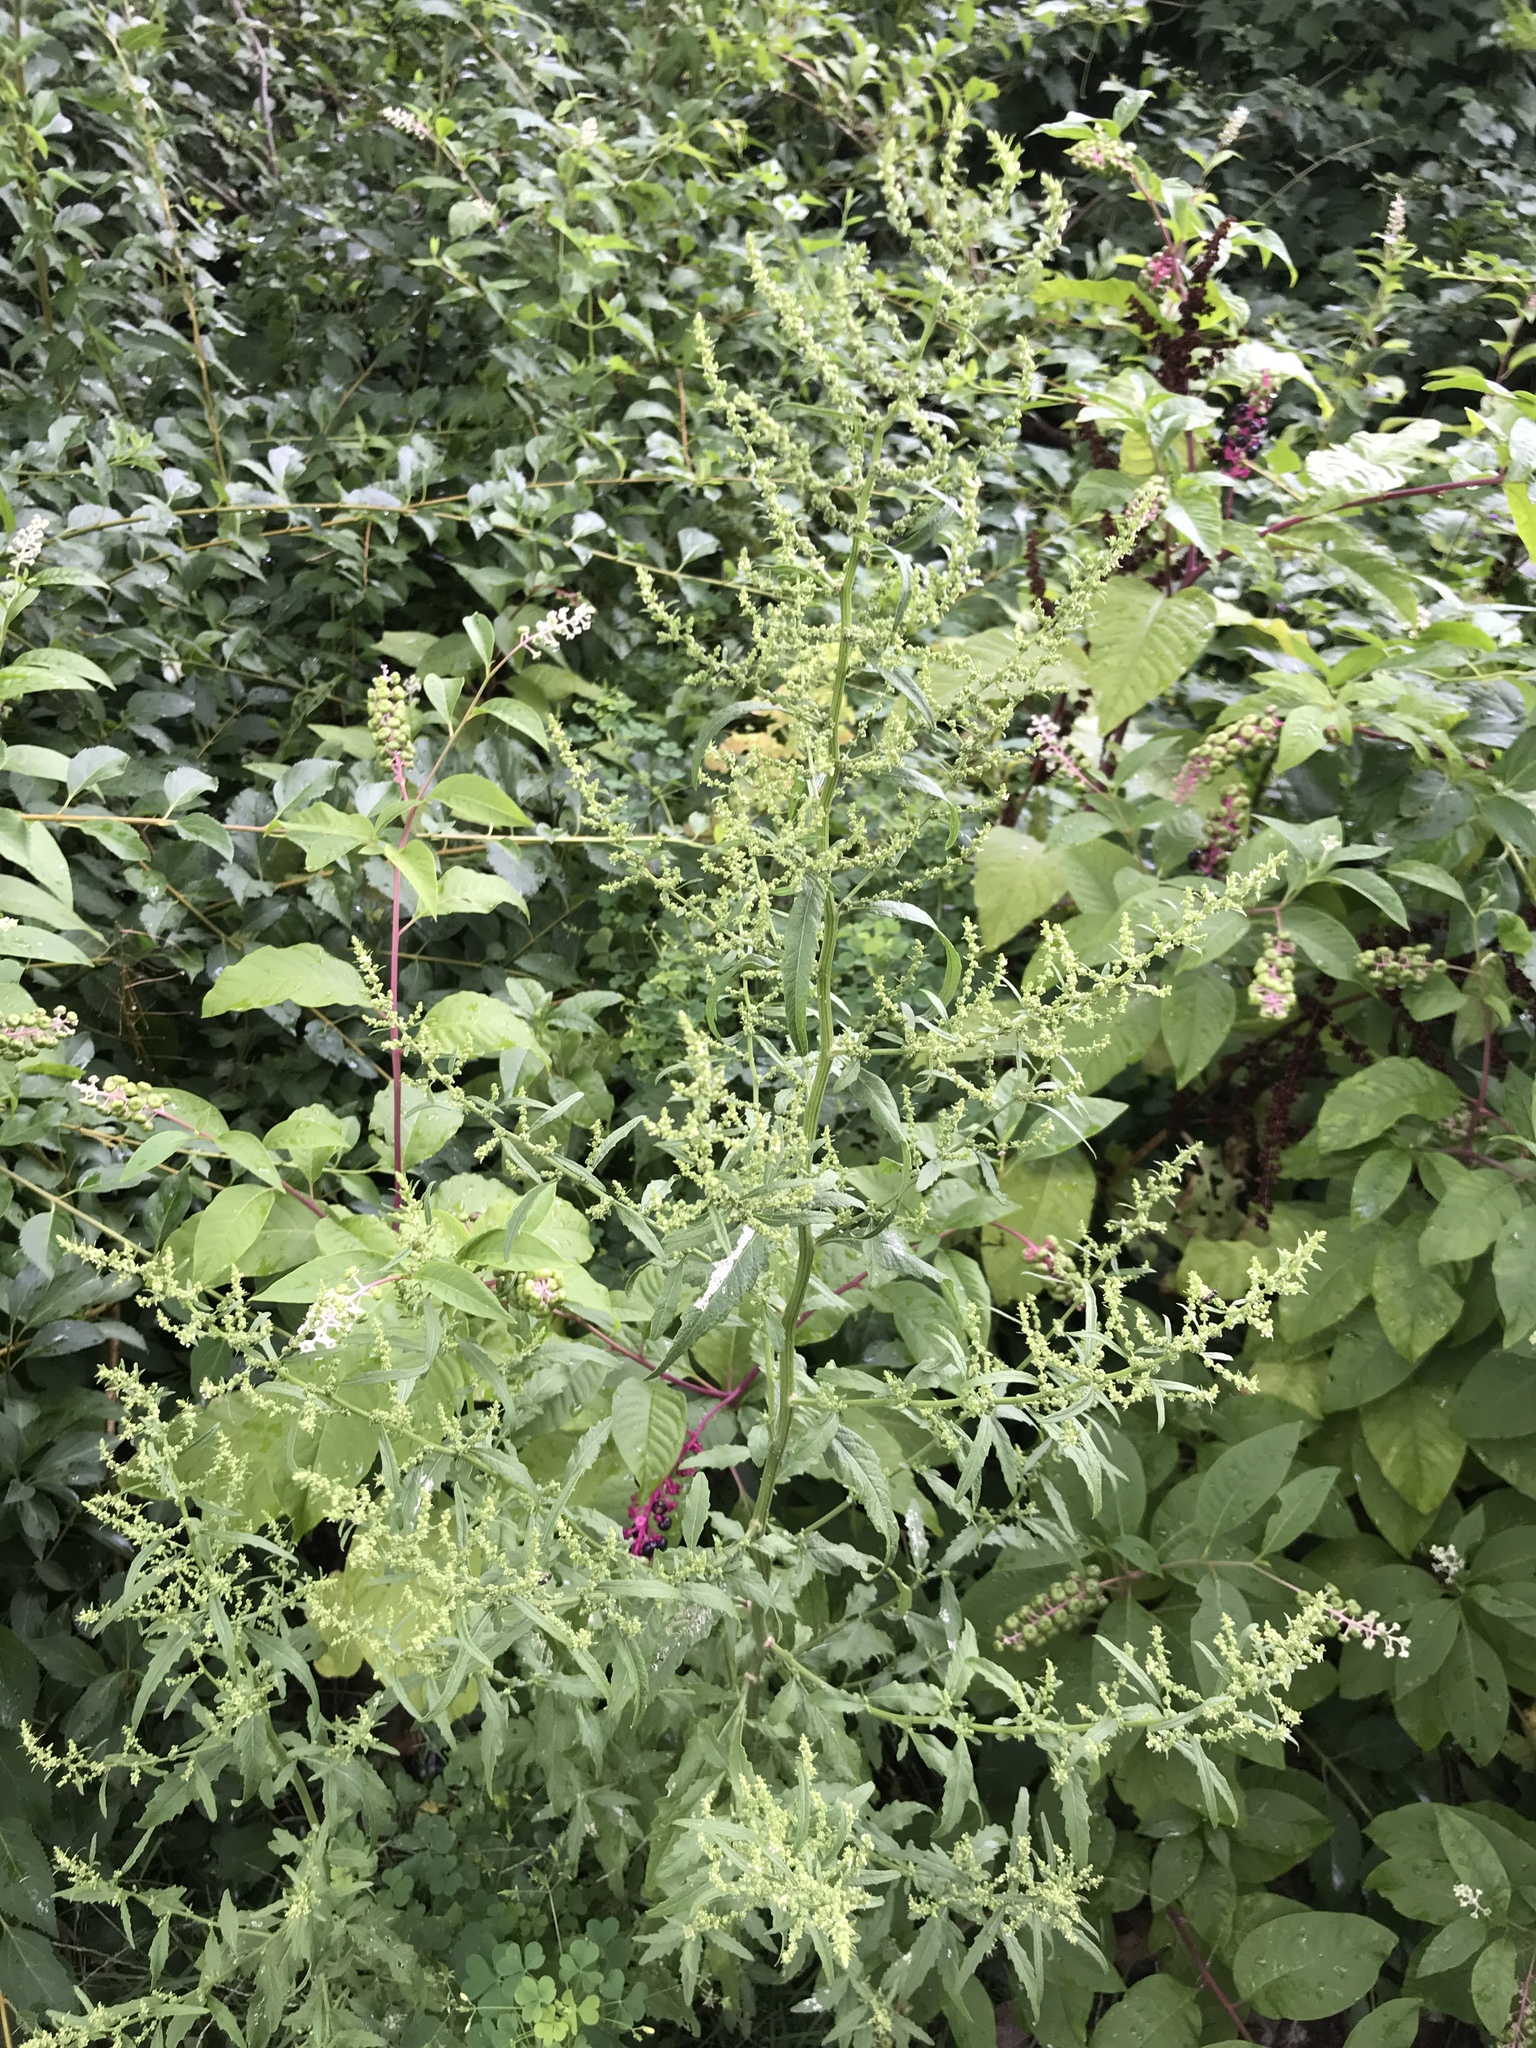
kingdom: Plantae
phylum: Tracheophyta
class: Magnoliopsida
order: Caryophyllales
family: Amaranthaceae
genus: Dysphania
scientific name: Dysphania ambrosioides
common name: Wormseed
